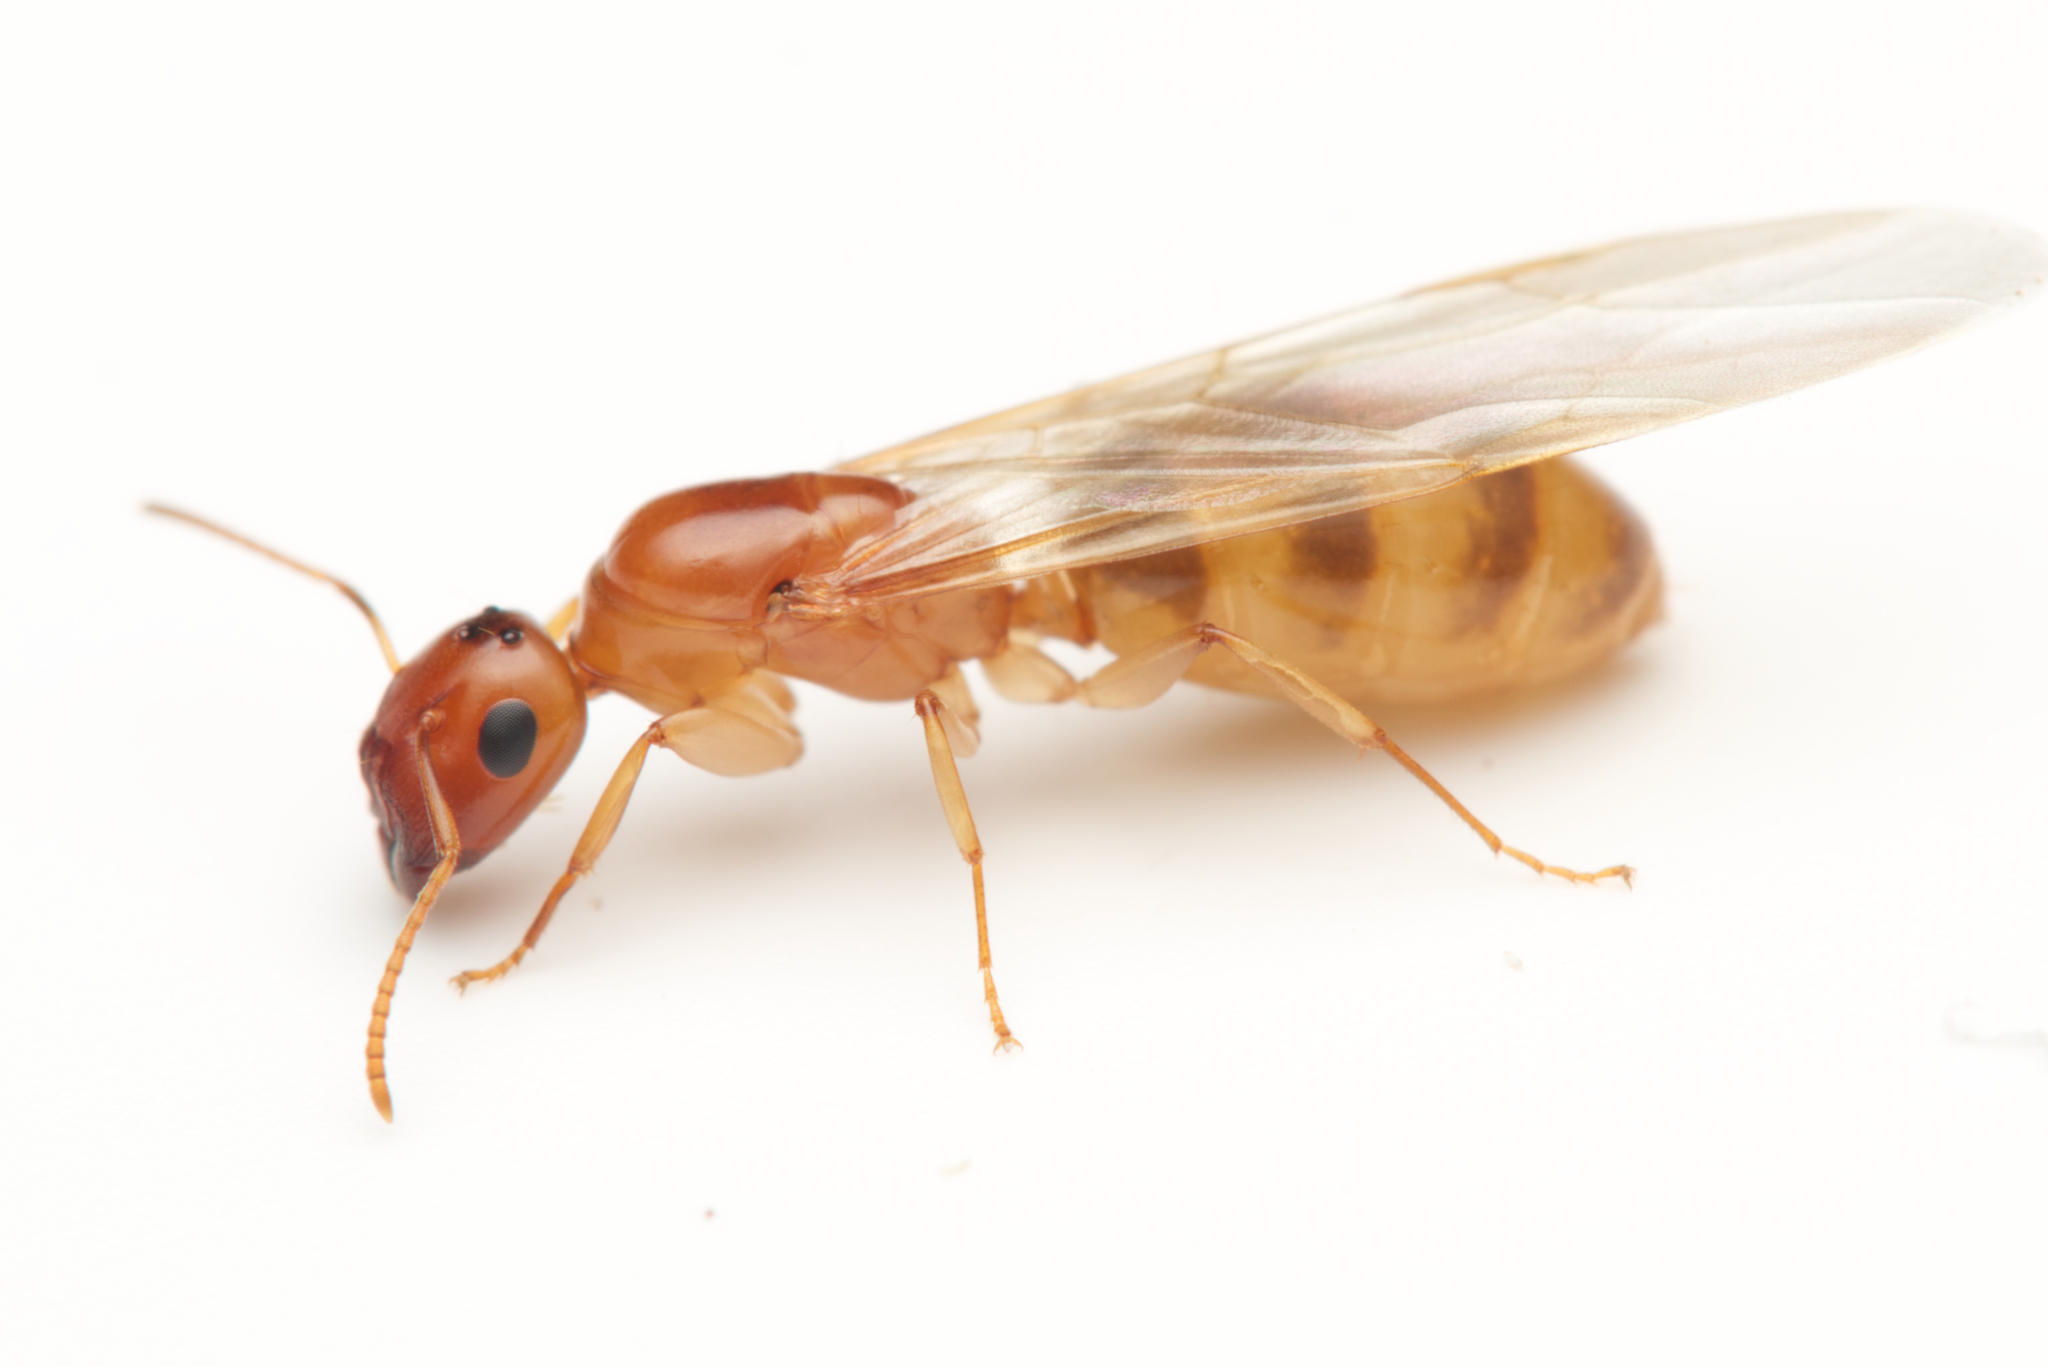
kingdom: Animalia
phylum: Arthropoda
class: Insecta
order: Hymenoptera
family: Formicidae
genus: Colobopsis
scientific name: Colobopsis
